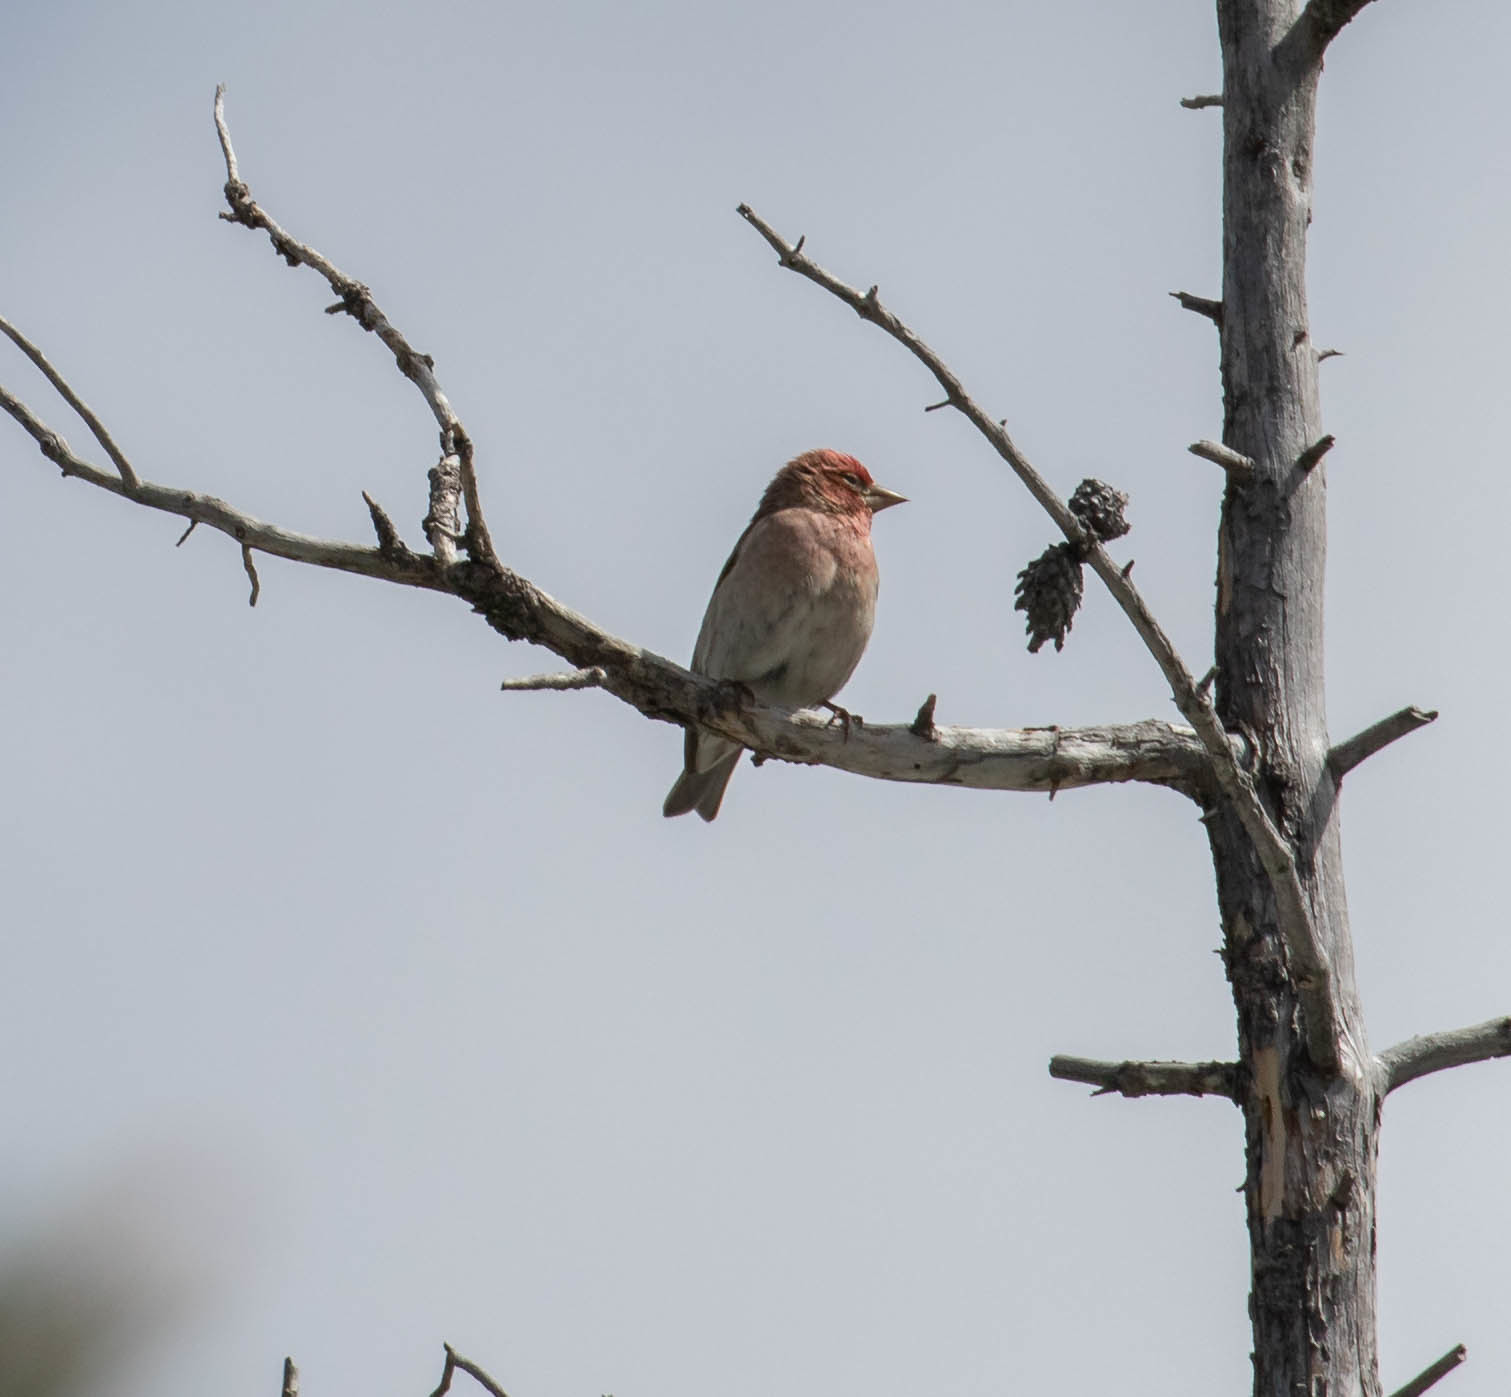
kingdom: Animalia
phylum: Chordata
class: Aves
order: Passeriformes
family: Fringillidae
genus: Haemorhous
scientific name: Haemorhous cassinii
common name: Cassin's finch
